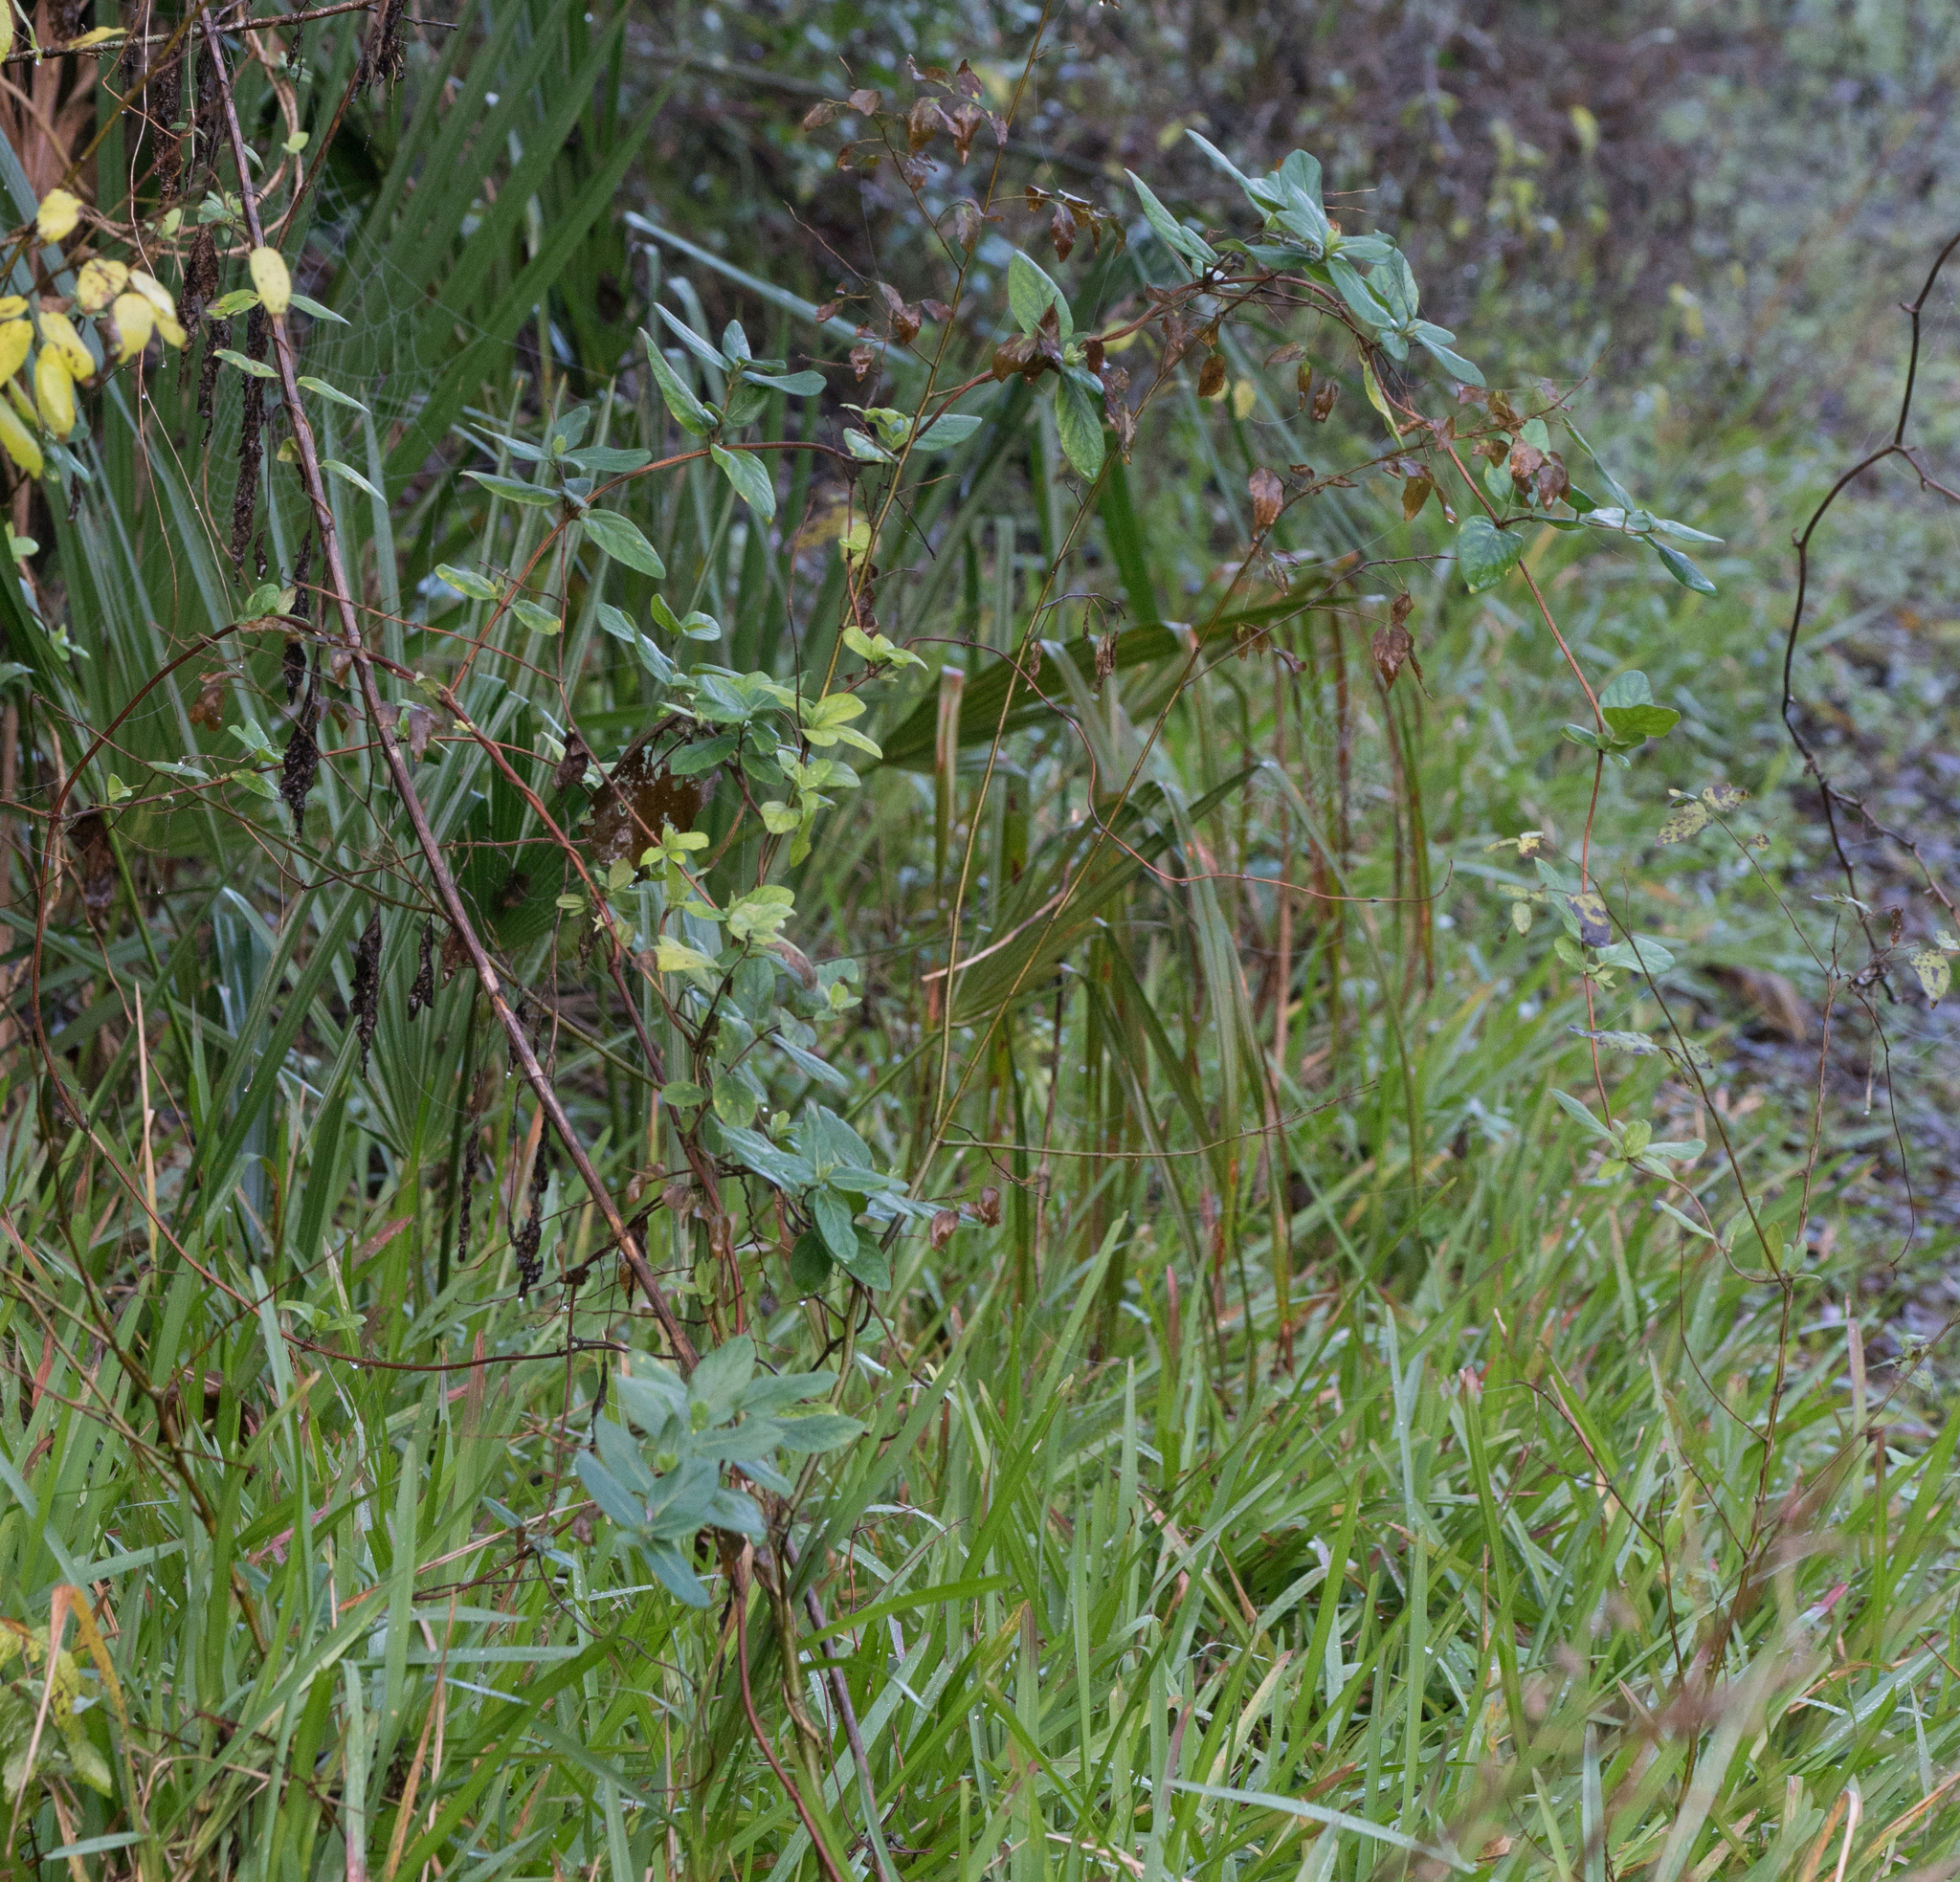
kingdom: Plantae
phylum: Tracheophyta
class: Magnoliopsida
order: Dipsacales
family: Caprifoliaceae
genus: Lonicera
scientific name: Lonicera japonica
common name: Japanese honeysuckle
